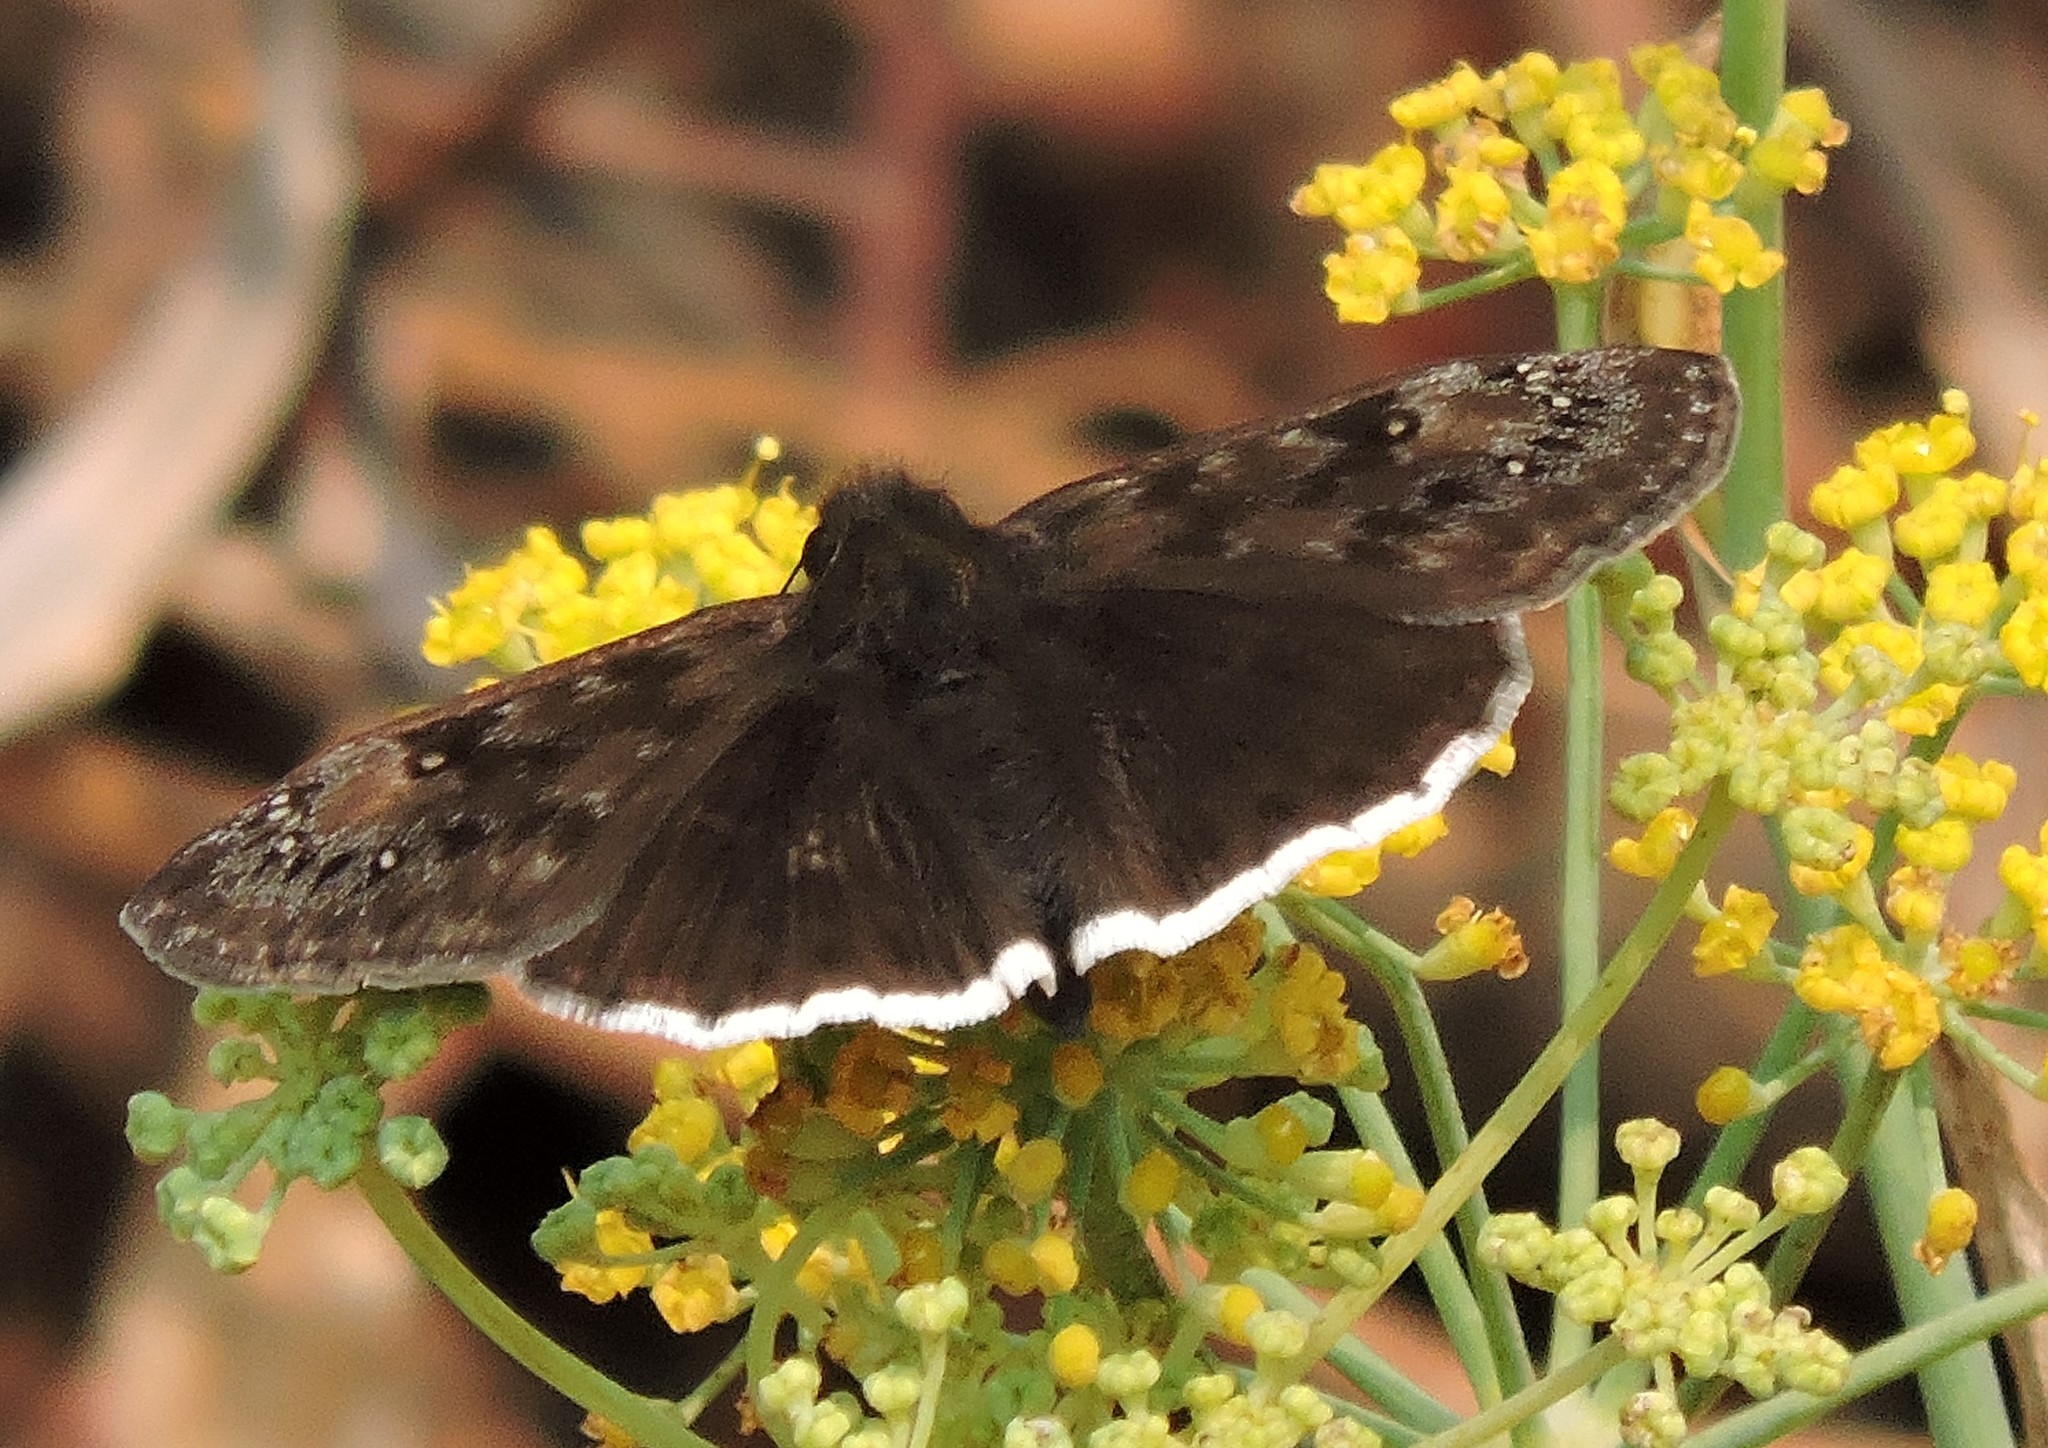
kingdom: Animalia
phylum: Arthropoda
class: Insecta
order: Lepidoptera
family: Hesperiidae
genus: Erynnis
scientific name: Erynnis tristis
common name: Mournful duskywing
